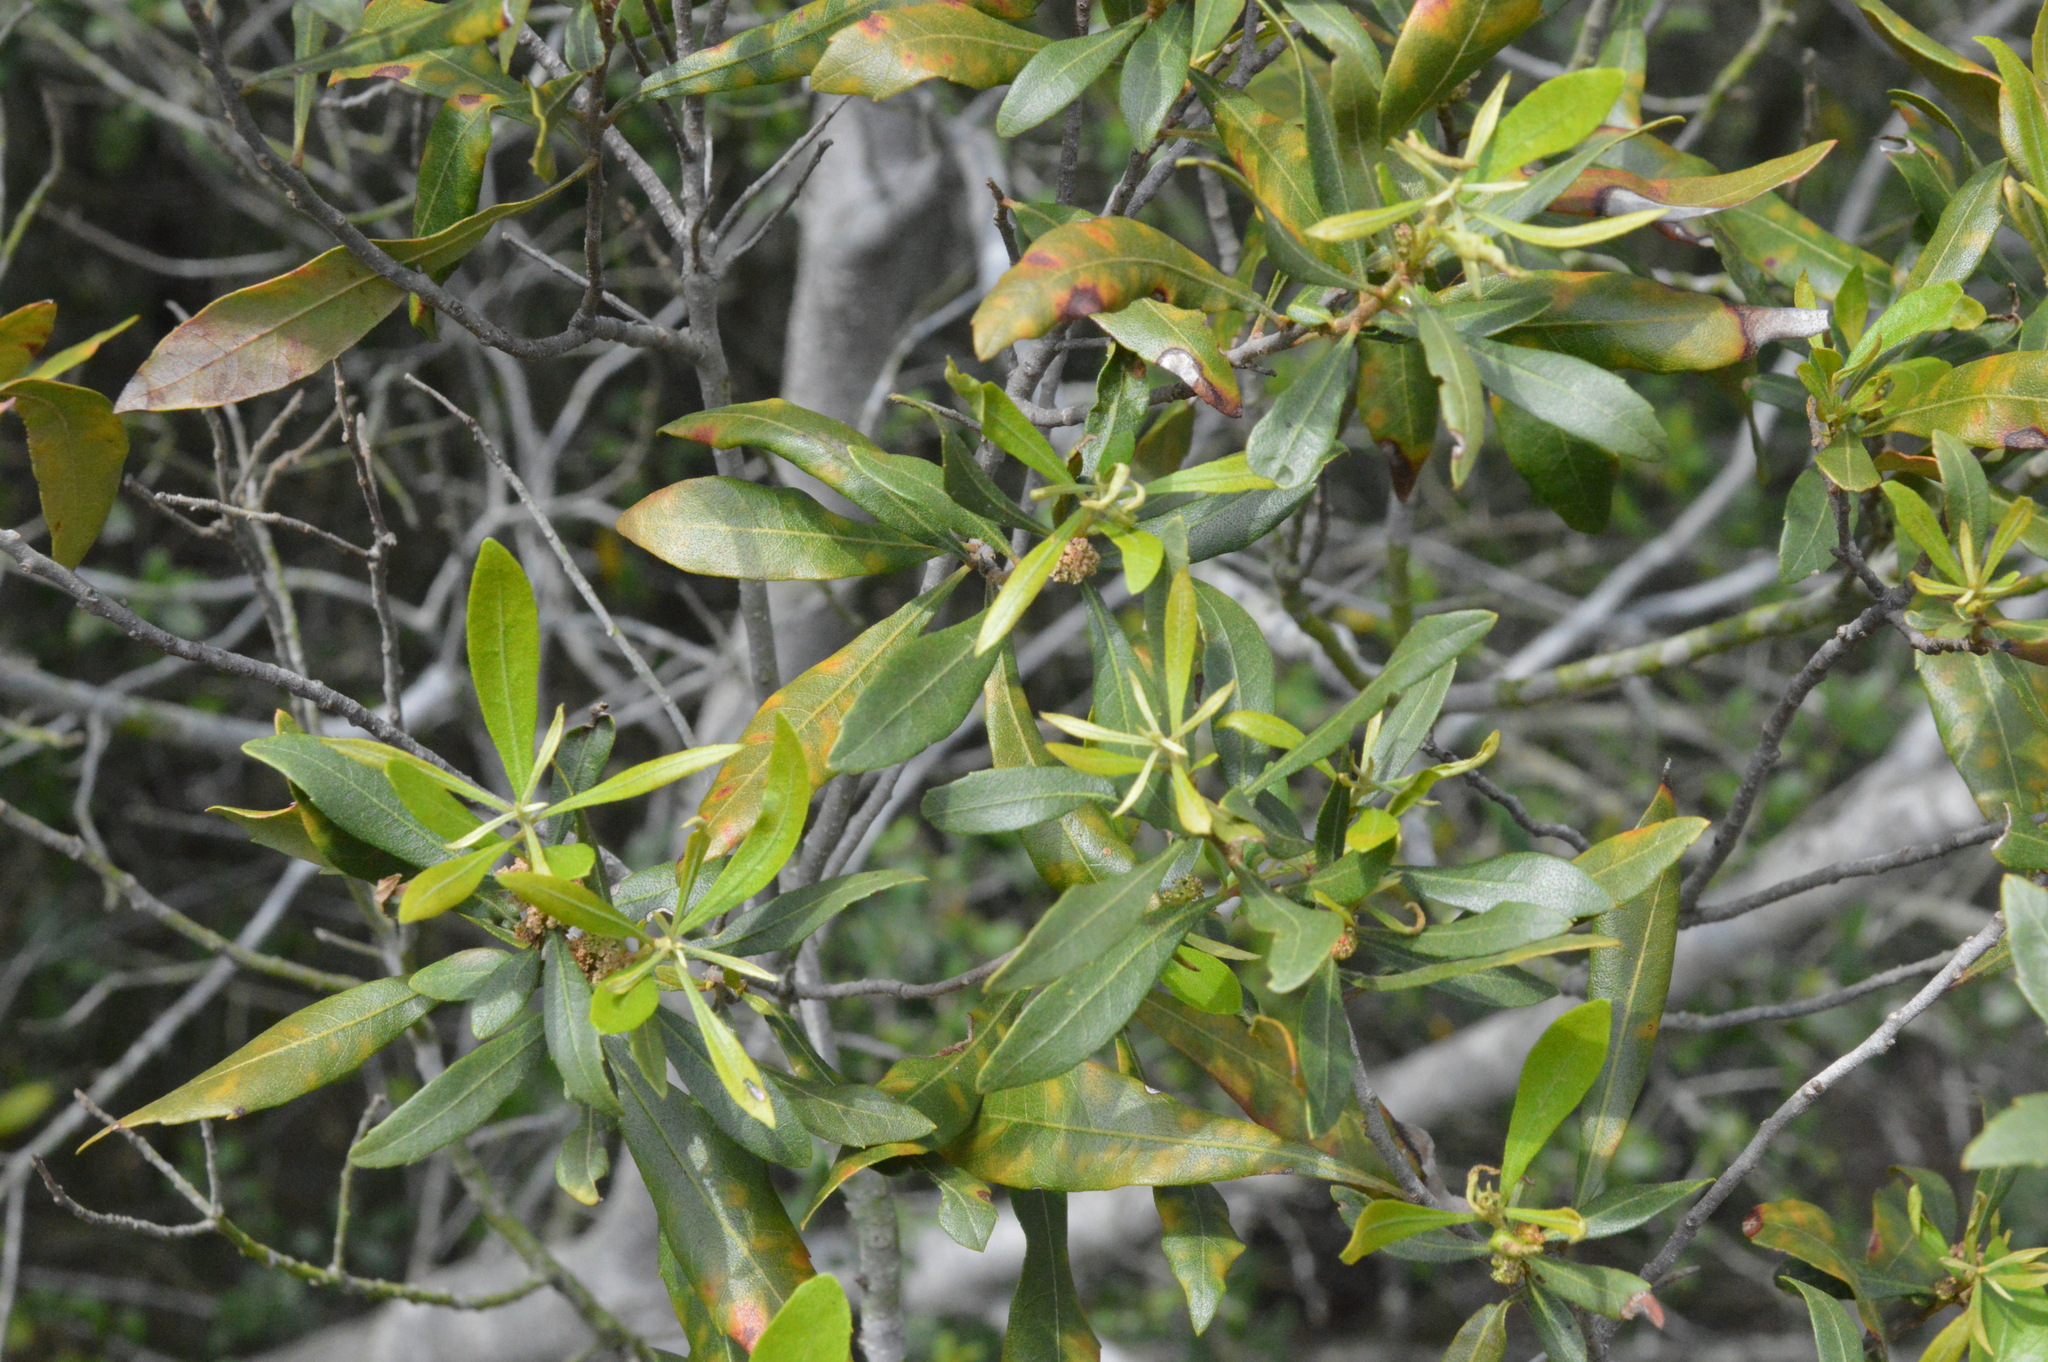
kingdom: Plantae
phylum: Tracheophyta
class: Magnoliopsida
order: Fagales
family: Myricaceae
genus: Morella
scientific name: Morella cerifera
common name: Wax myrtle
